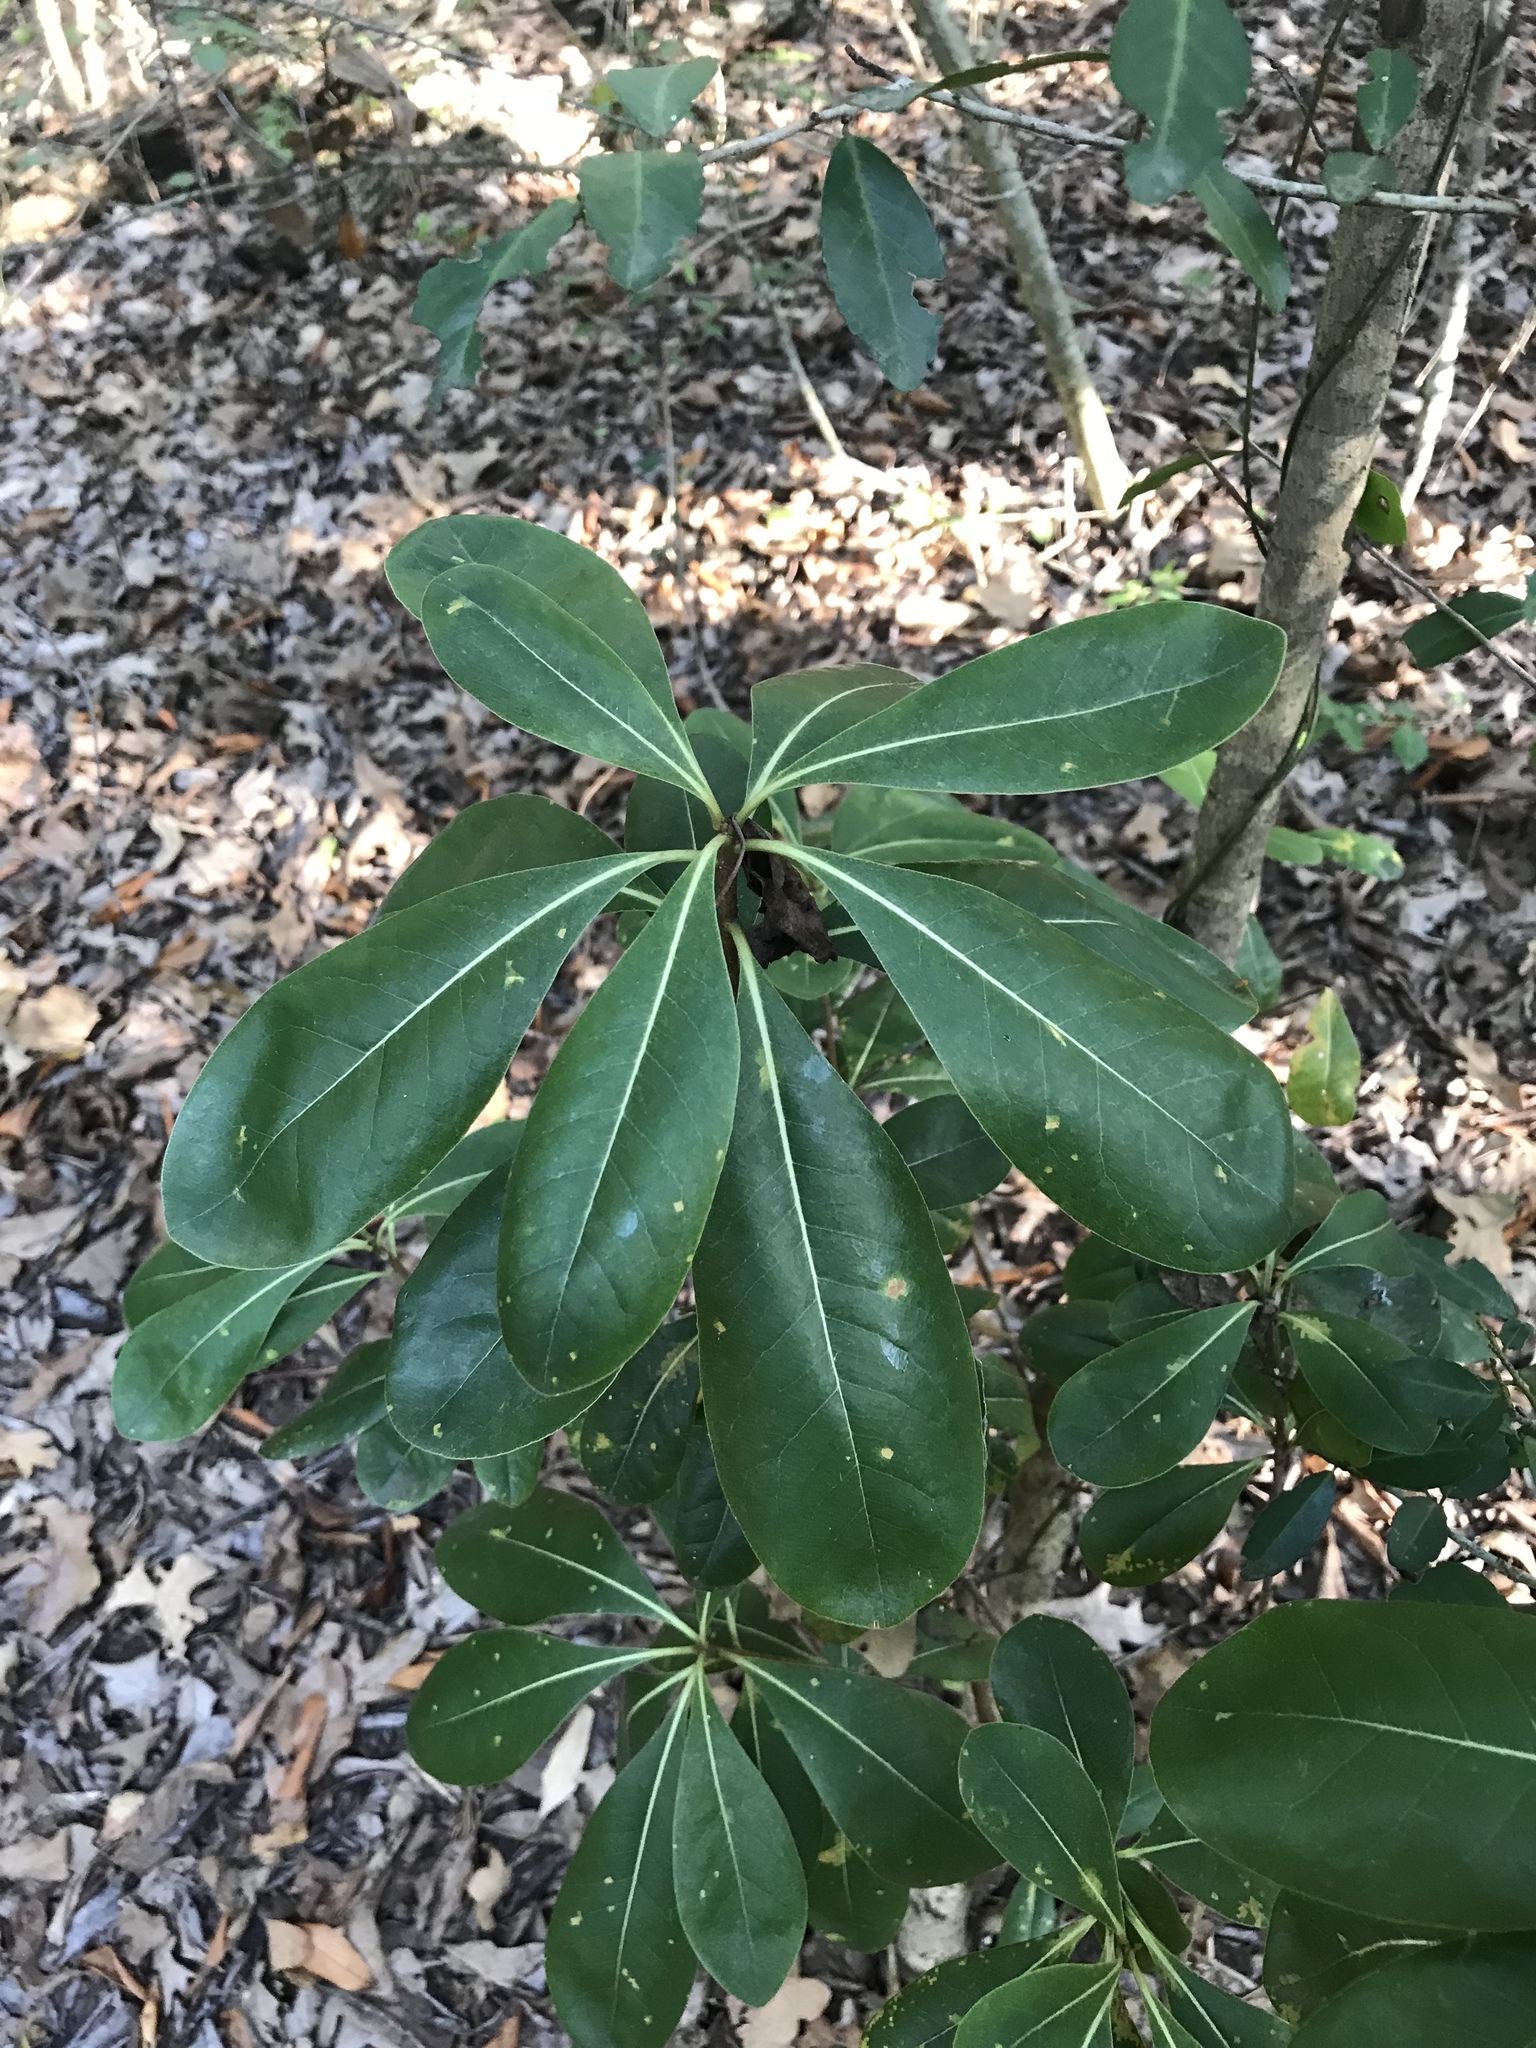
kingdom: Plantae
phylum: Tracheophyta
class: Magnoliopsida
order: Apiales
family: Pittosporaceae
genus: Pittosporum
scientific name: Pittosporum tobira
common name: Japanese cheesewood
